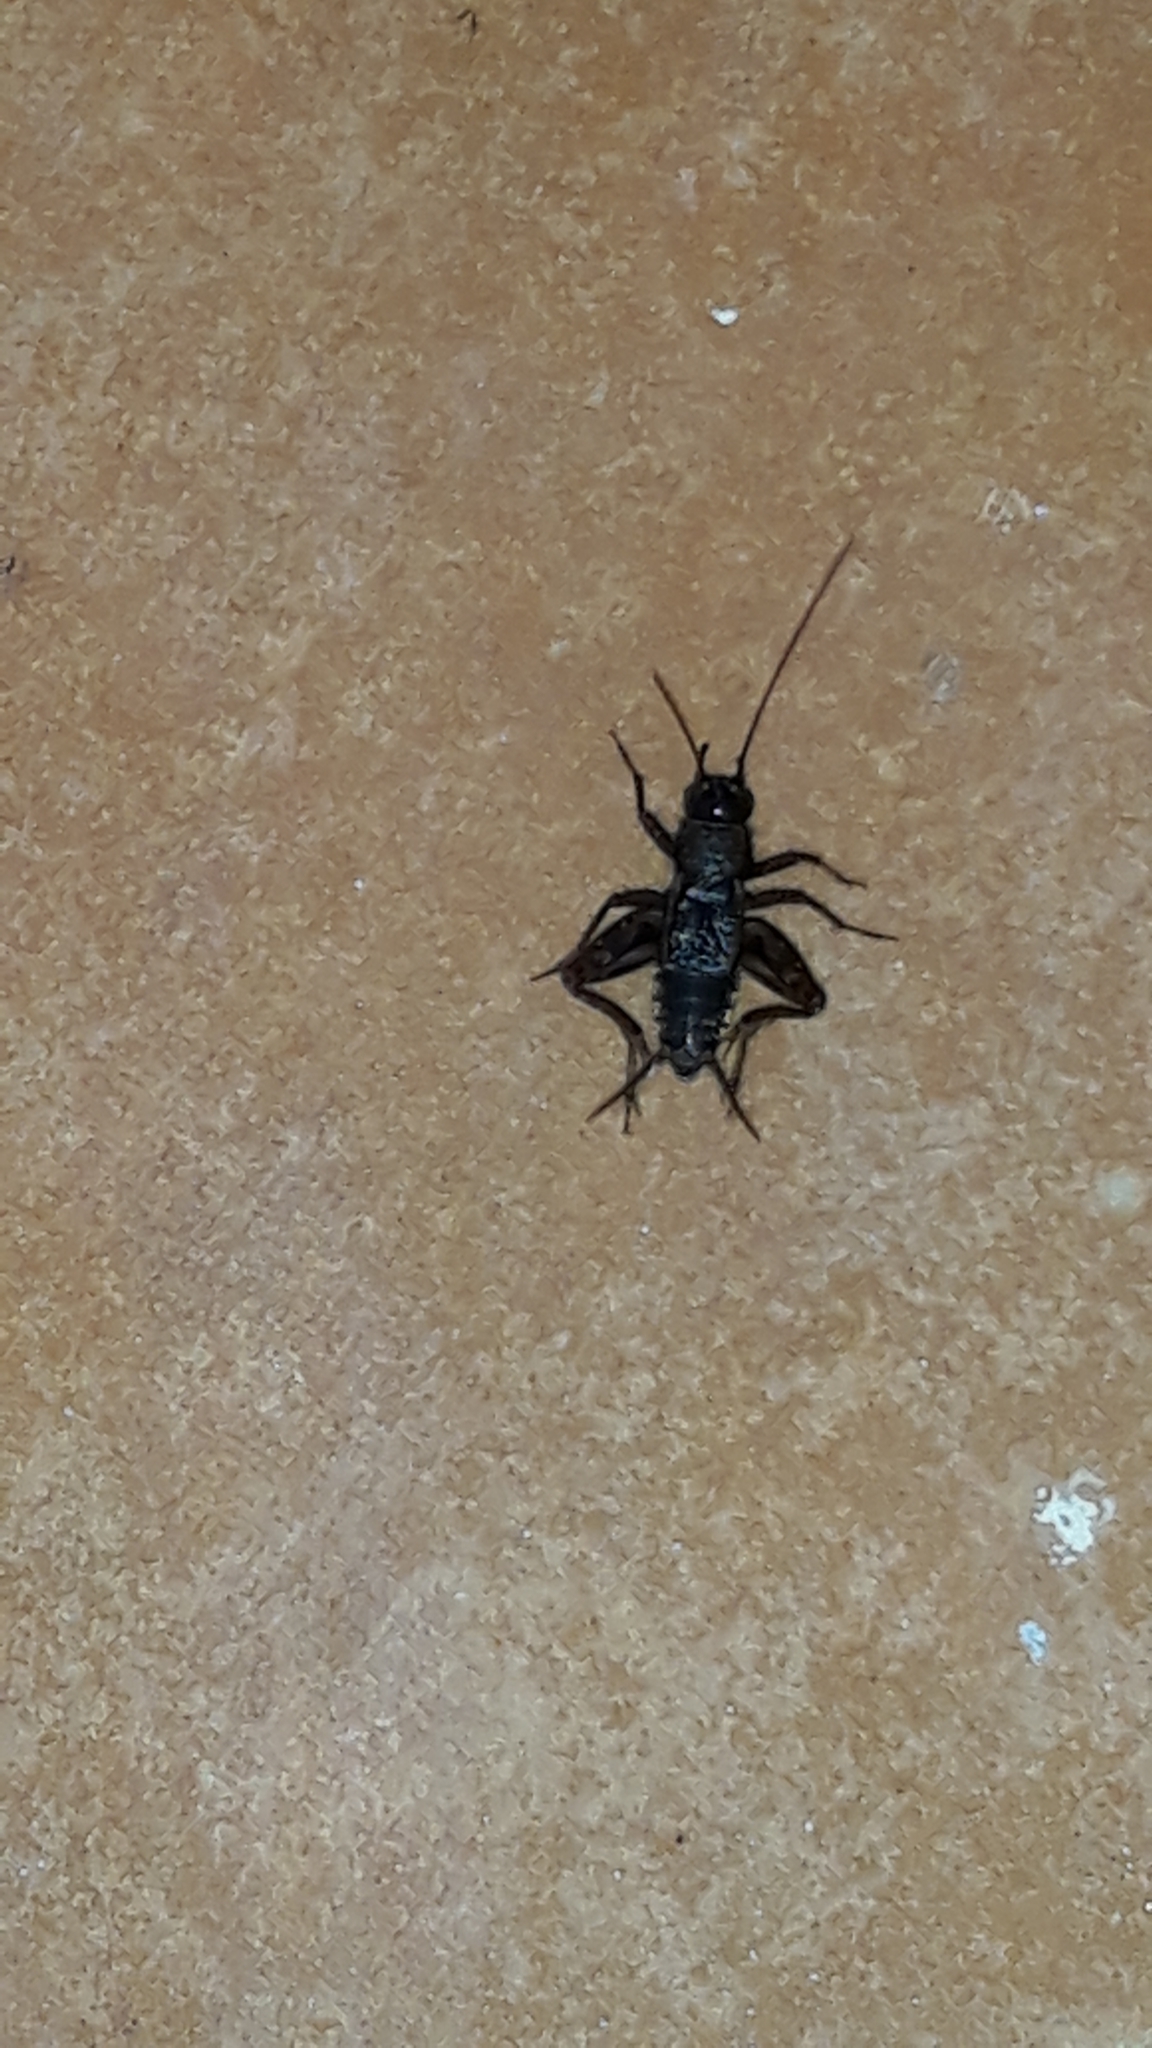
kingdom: Animalia
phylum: Arthropoda
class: Insecta
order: Orthoptera
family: Trigonidiidae
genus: Nemobius
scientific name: Nemobius sylvestris
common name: Wood-cricket
